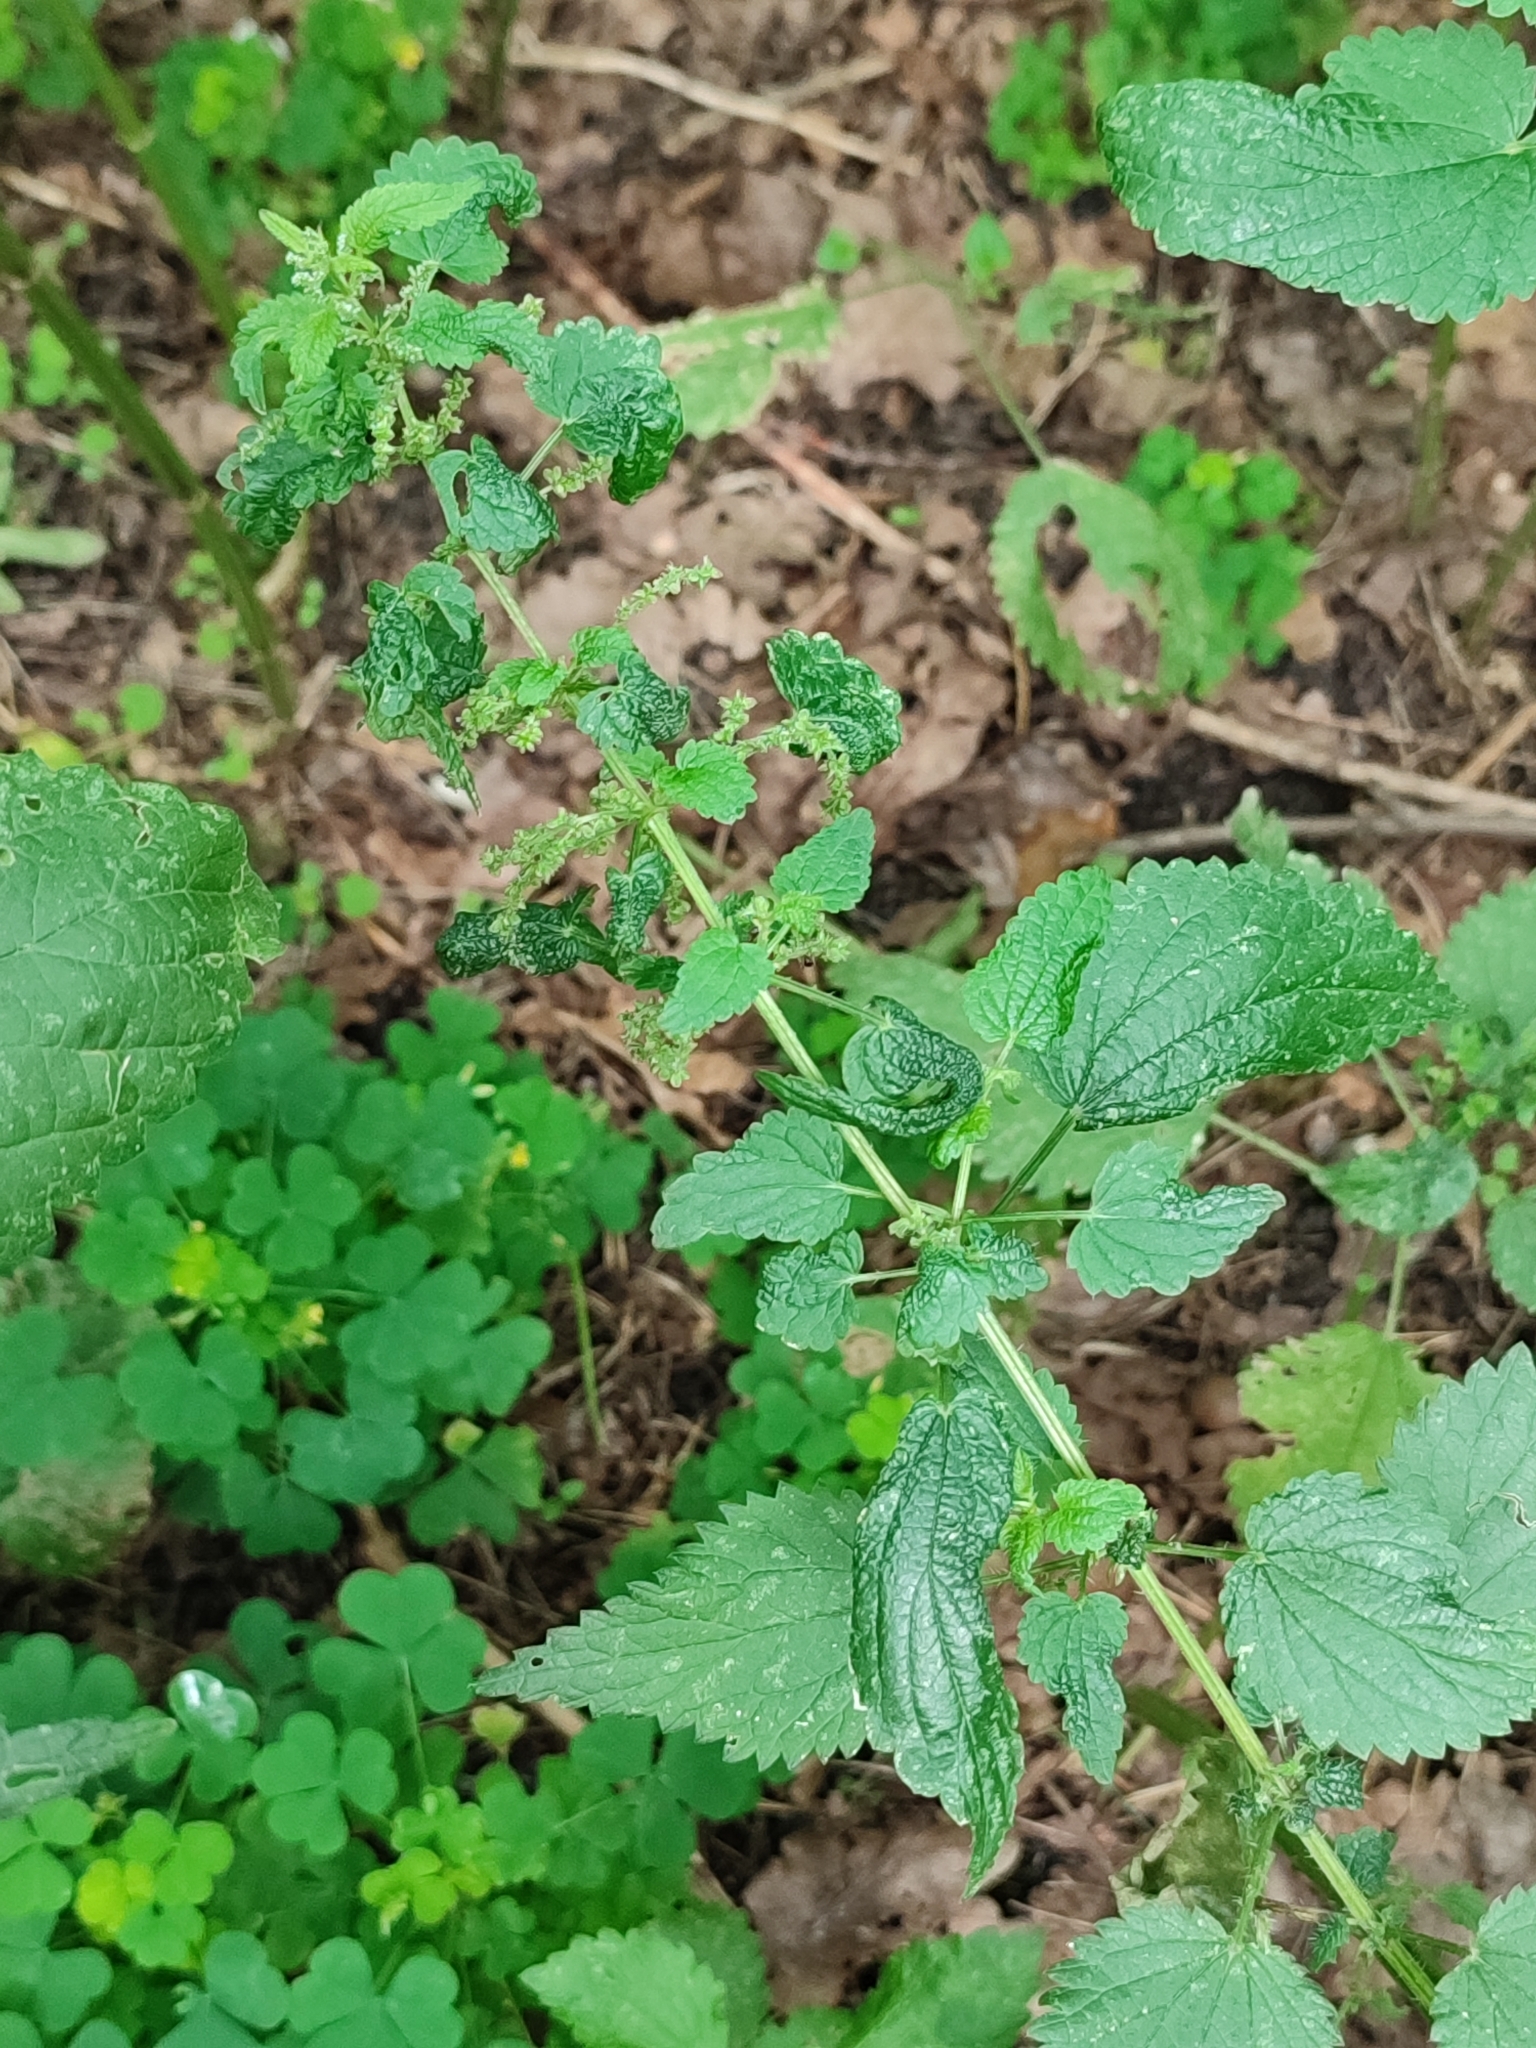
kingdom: Plantae
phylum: Tracheophyta
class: Magnoliopsida
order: Rosales
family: Urticaceae
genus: Urtica
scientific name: Urtica dioica
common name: Common nettle
